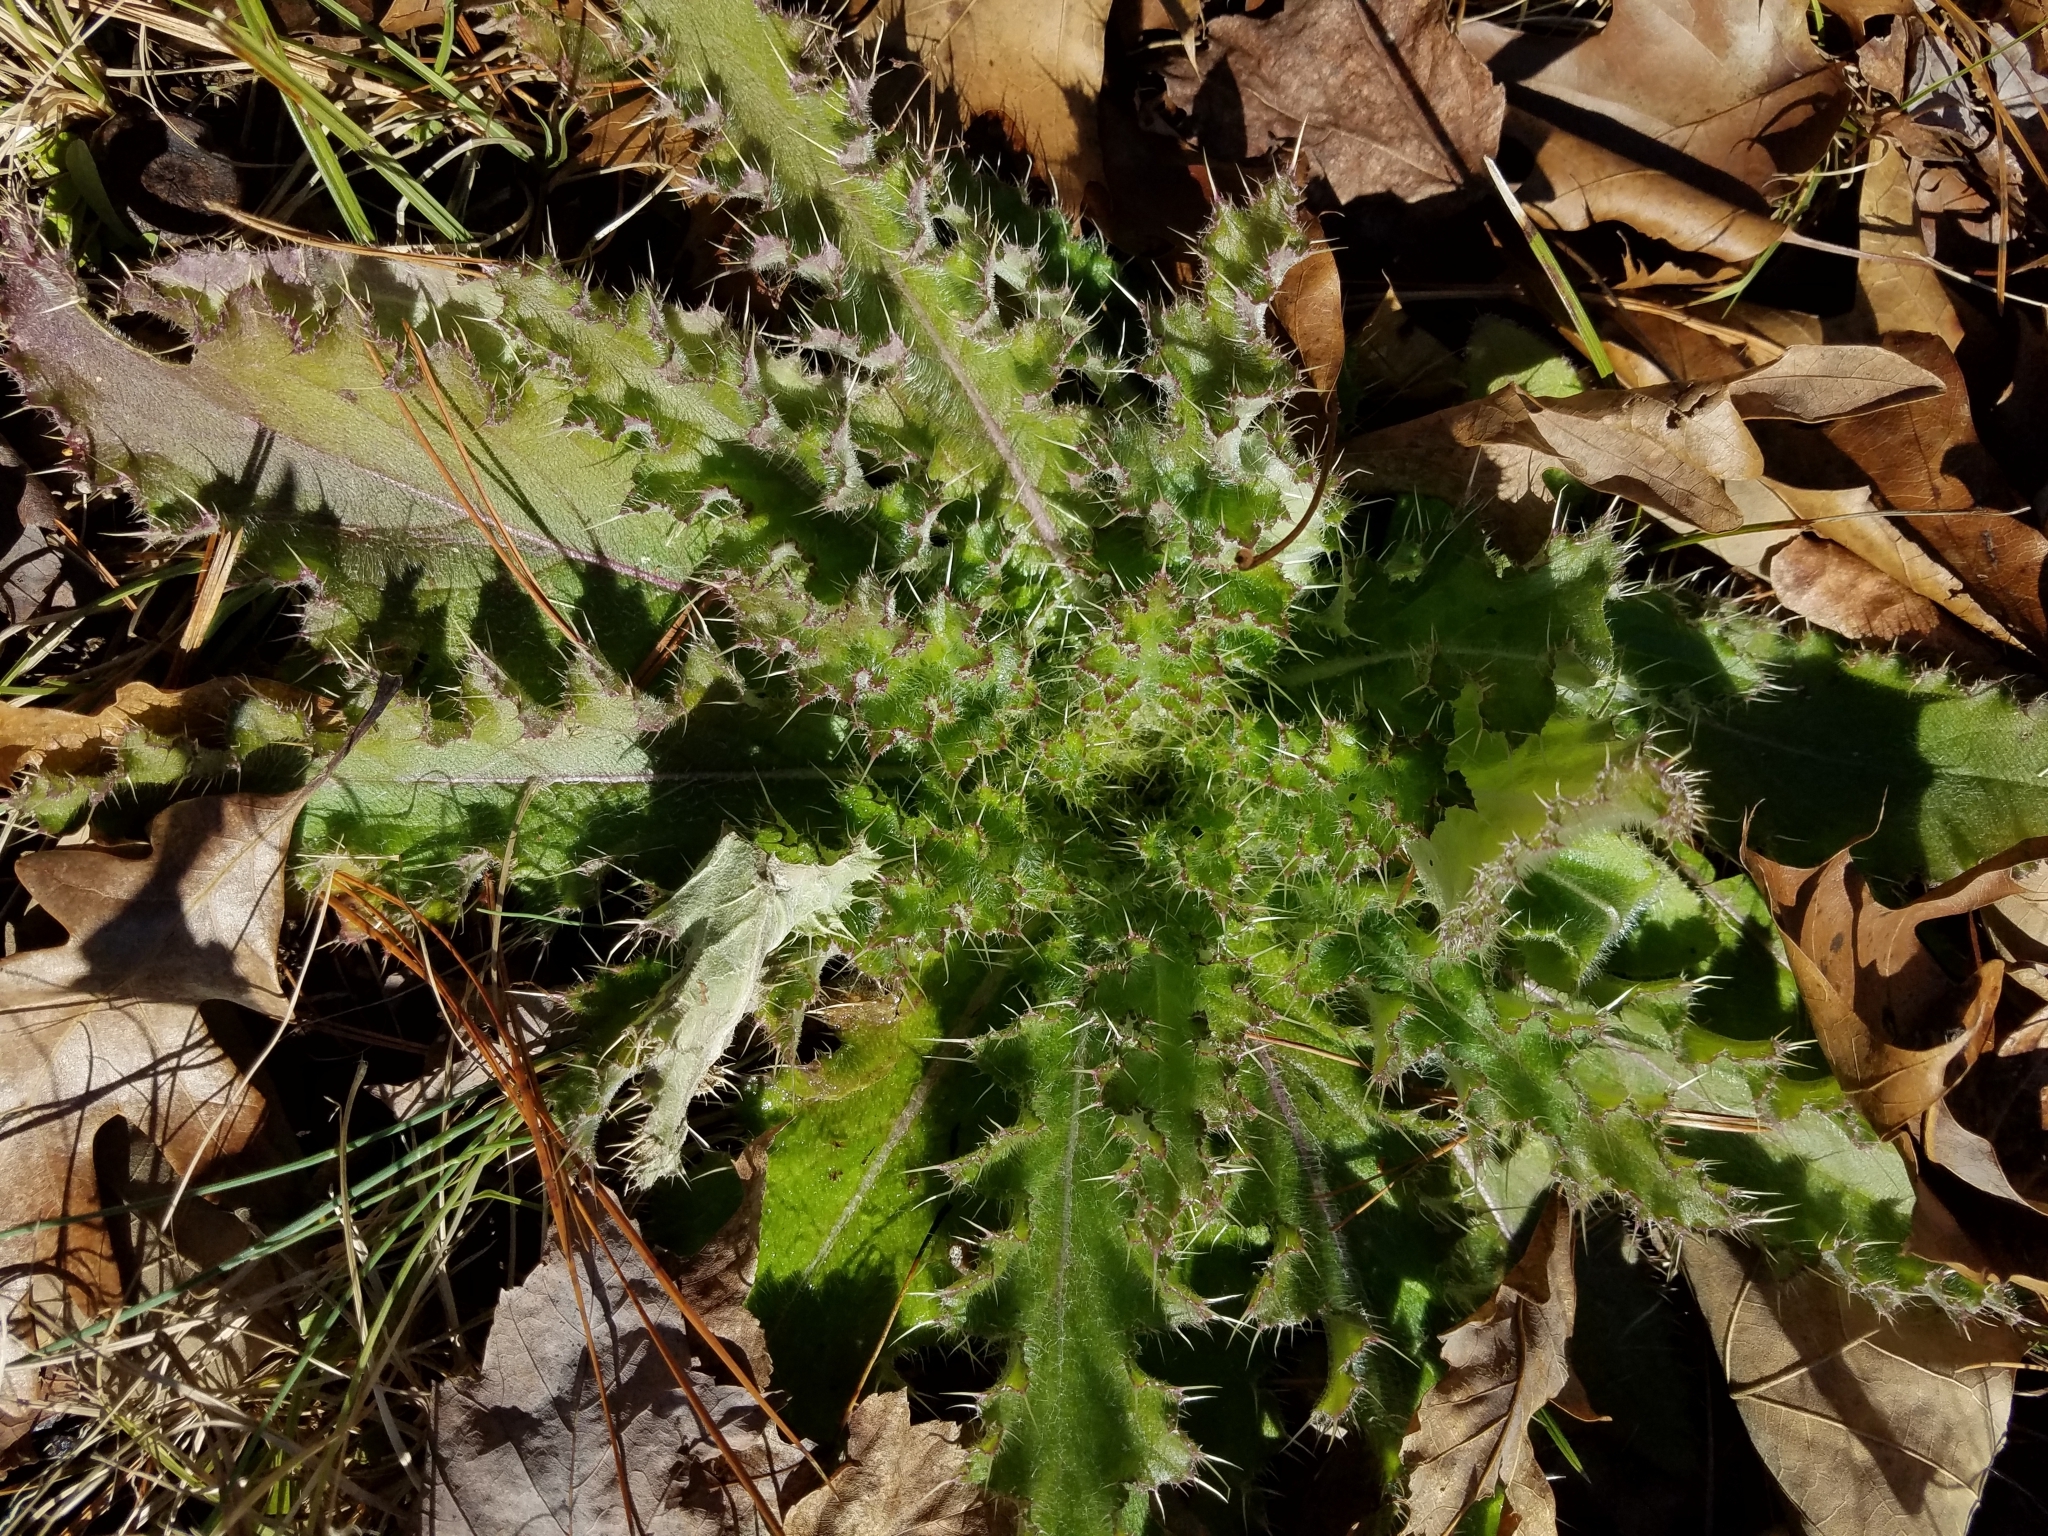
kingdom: Plantae
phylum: Tracheophyta
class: Magnoliopsida
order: Asterales
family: Asteraceae
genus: Cirsium
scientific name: Cirsium horridulum
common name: Bristly thistle
